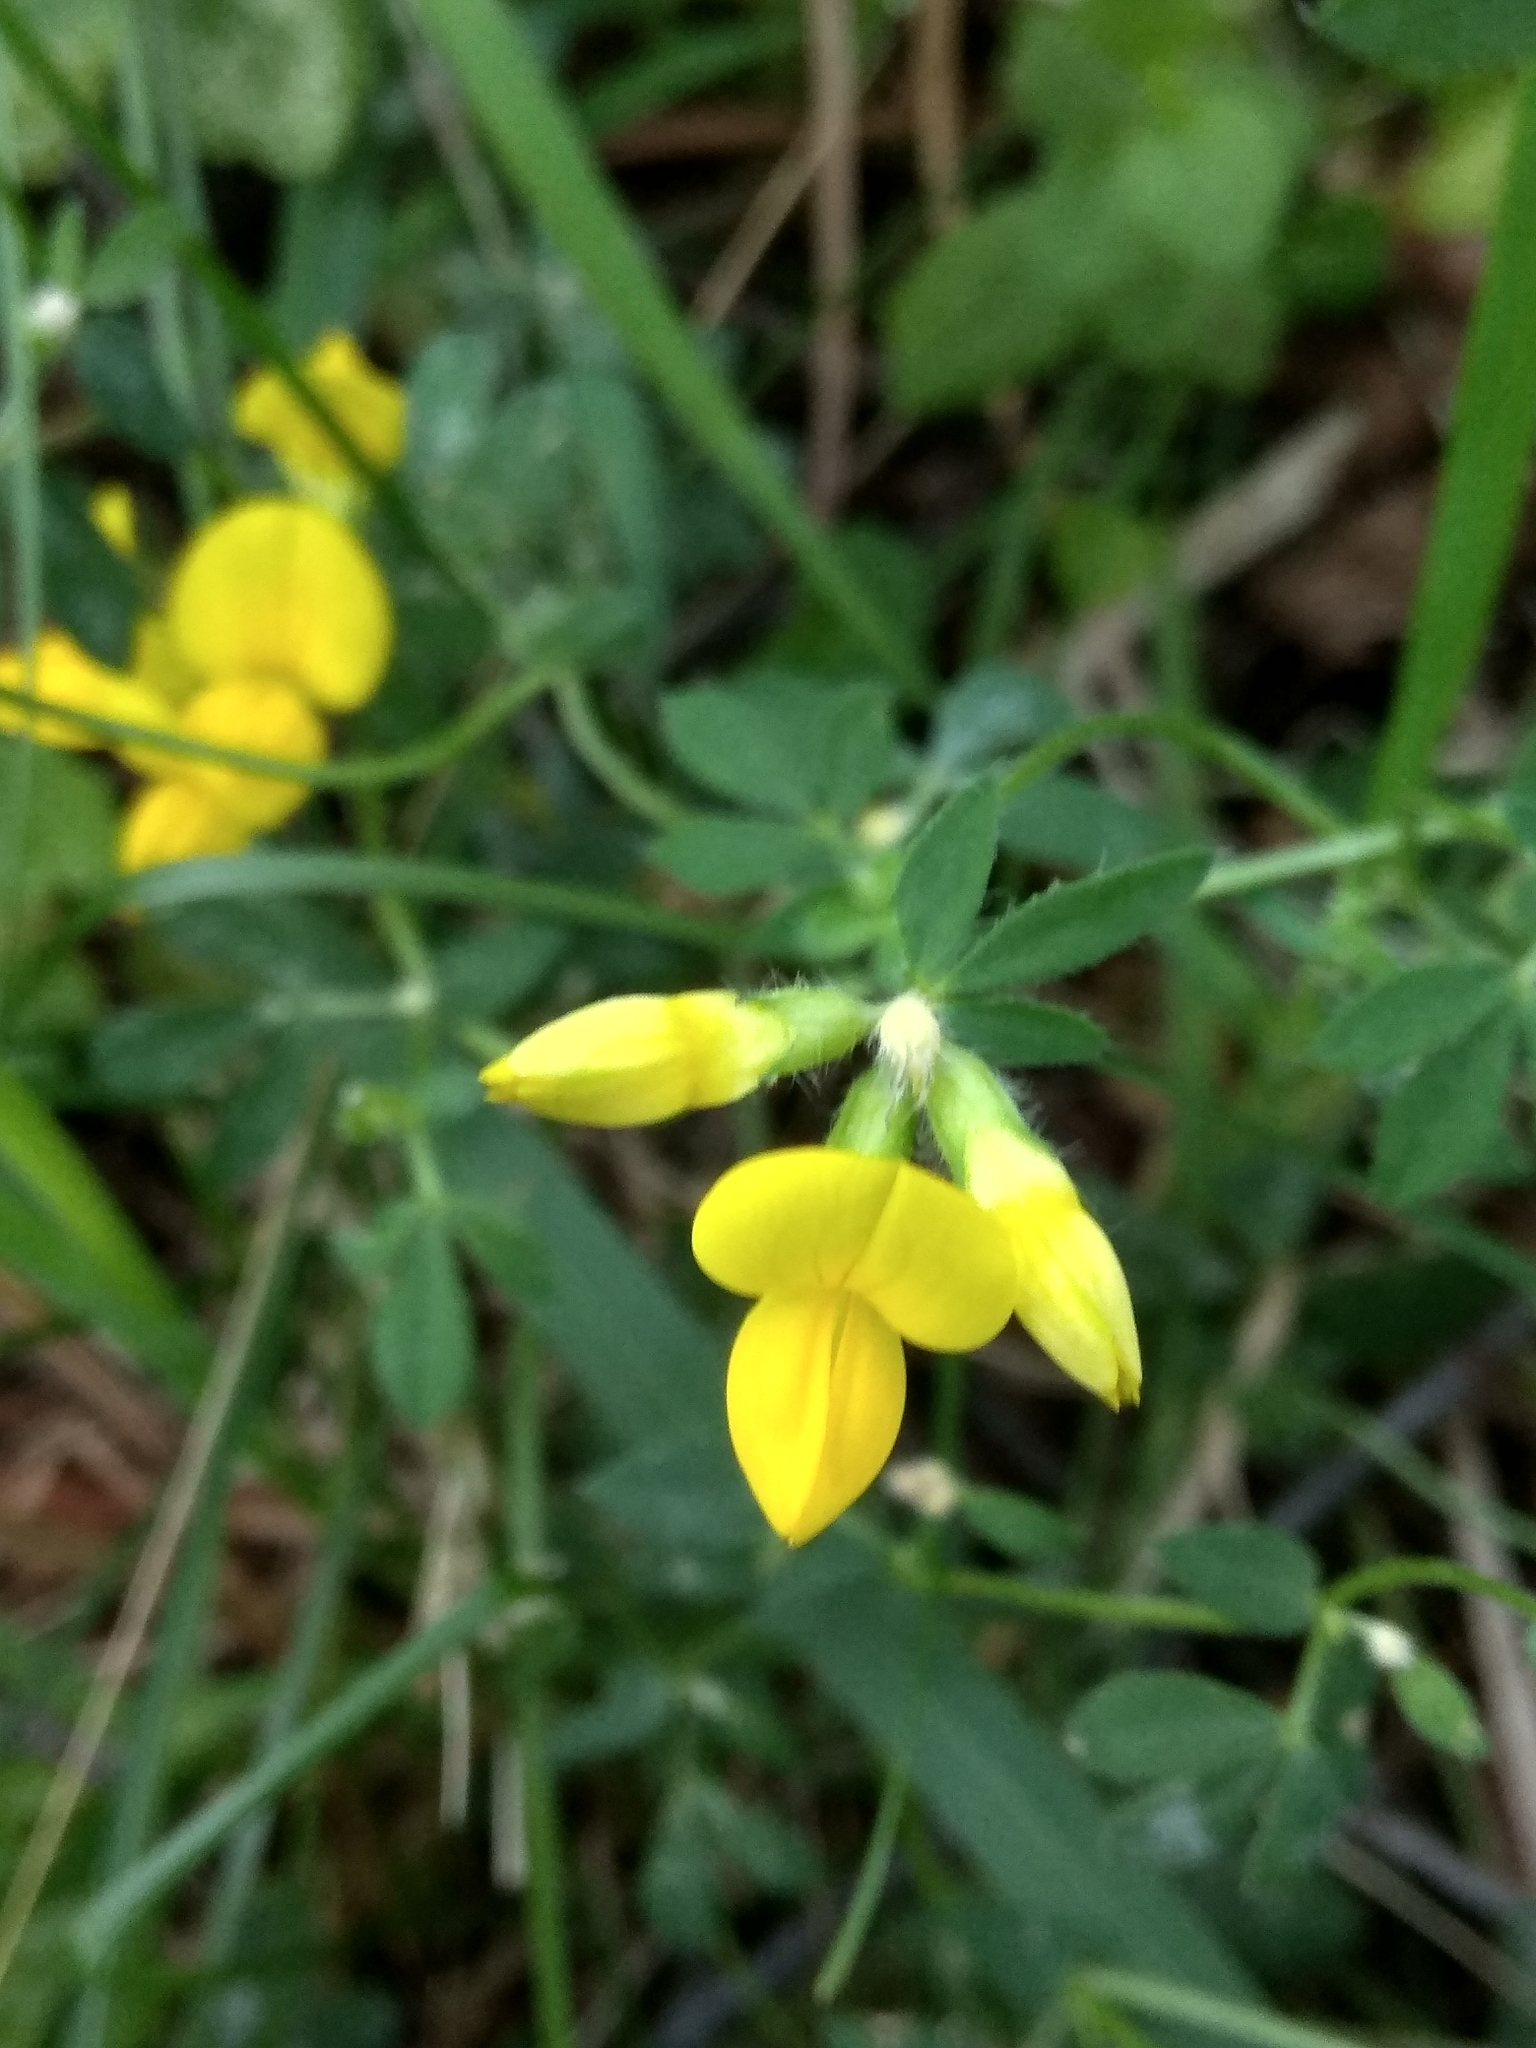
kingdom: Plantae
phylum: Tracheophyta
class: Magnoliopsida
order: Fabales
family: Fabaceae
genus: Lotus
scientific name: Lotus corniculatus
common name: Common bird's-foot-trefoil
